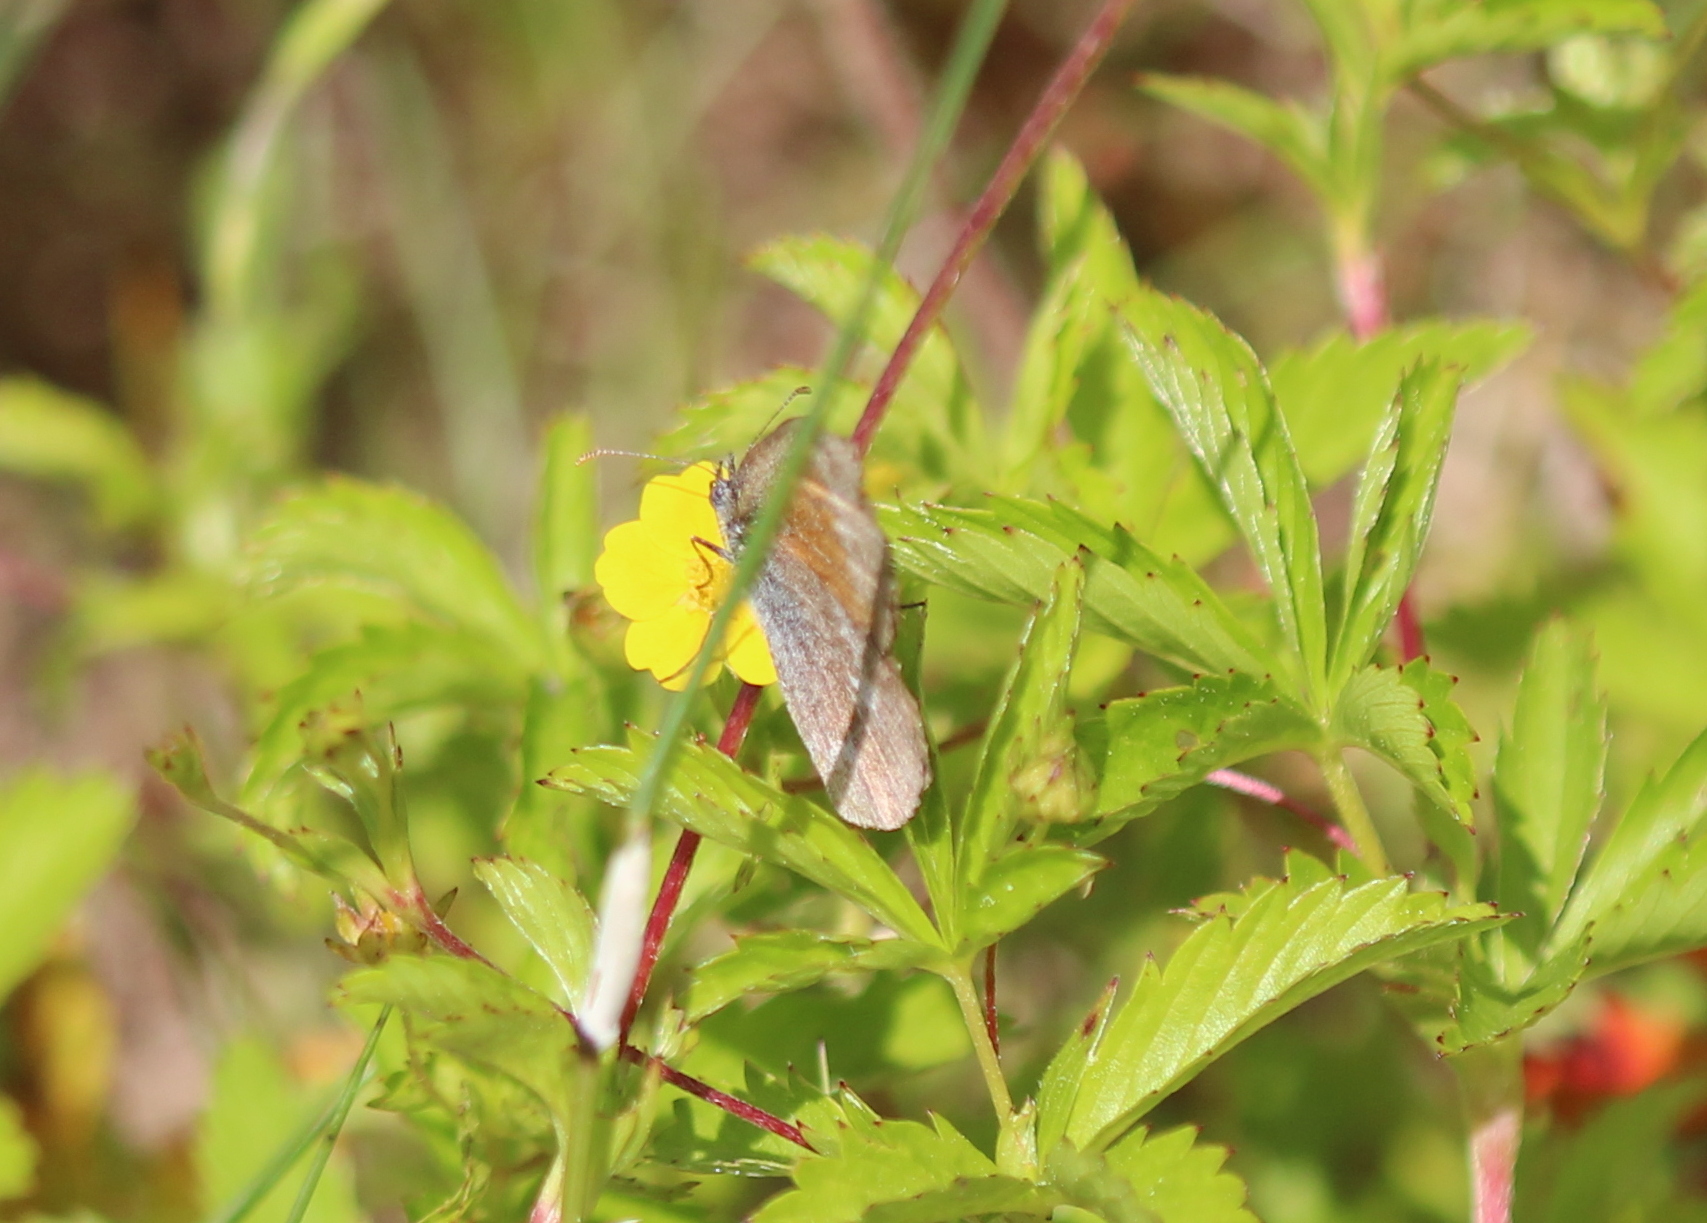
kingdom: Animalia
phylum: Arthropoda
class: Insecta
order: Lepidoptera
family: Nymphalidae
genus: Coenonympha
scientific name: Coenonympha california
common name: Common ringlet
